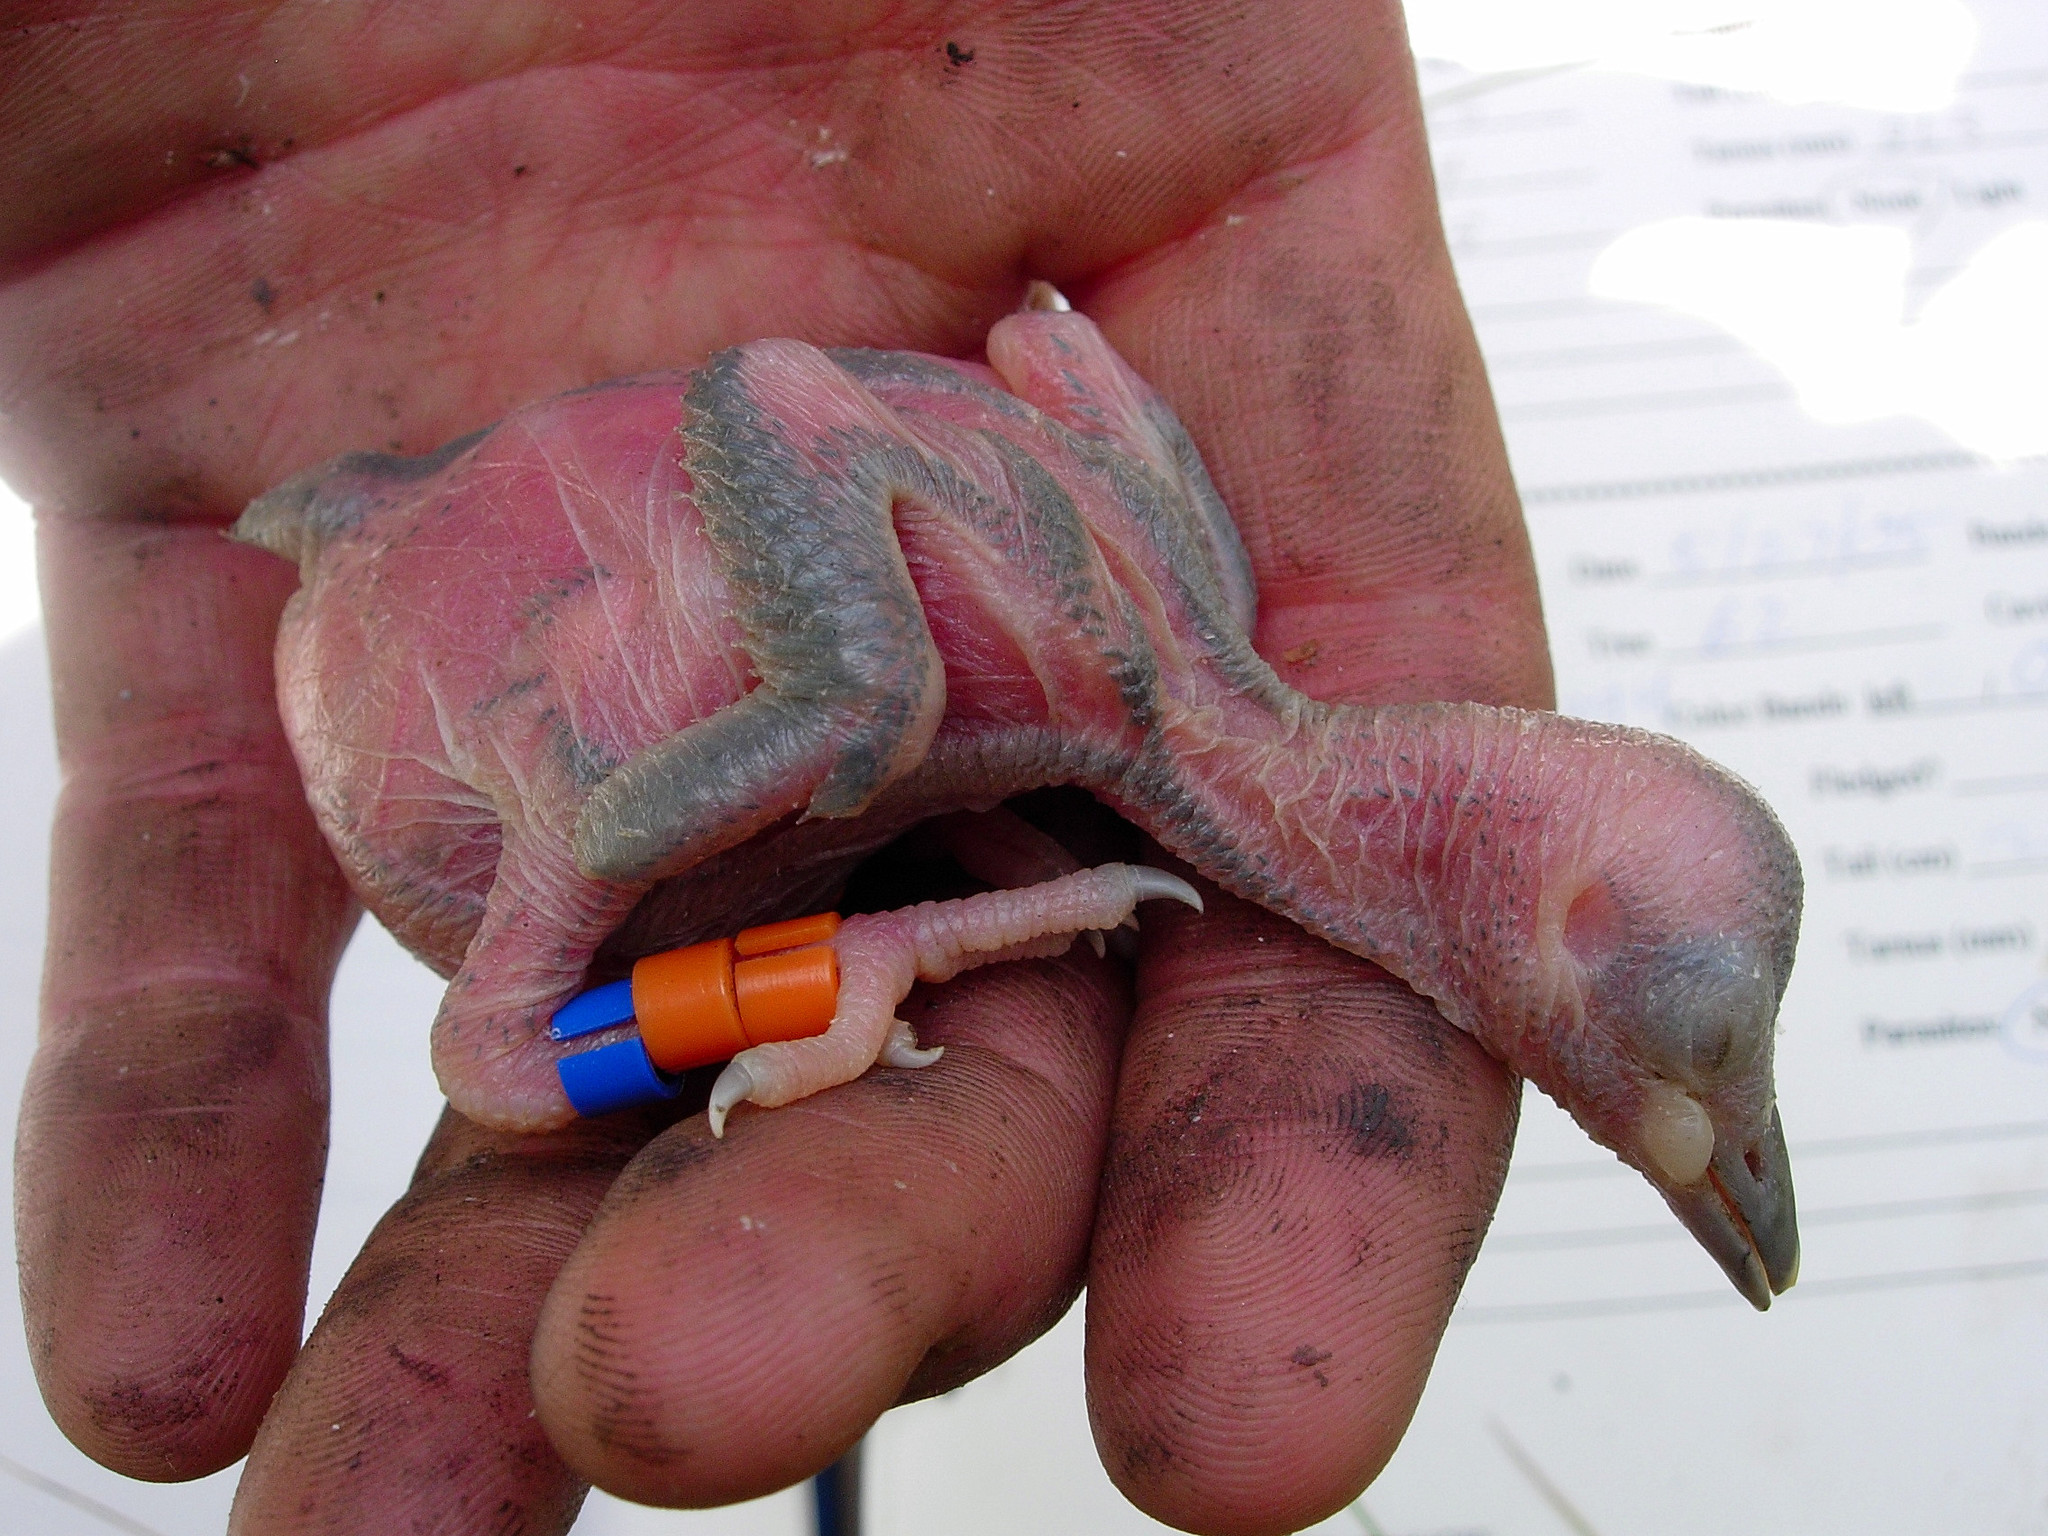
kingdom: Animalia
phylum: Chordata
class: Aves
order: Piciformes
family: Picidae
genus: Leuconotopicus
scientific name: Leuconotopicus borealis
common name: Red-cockaded woodpecker
